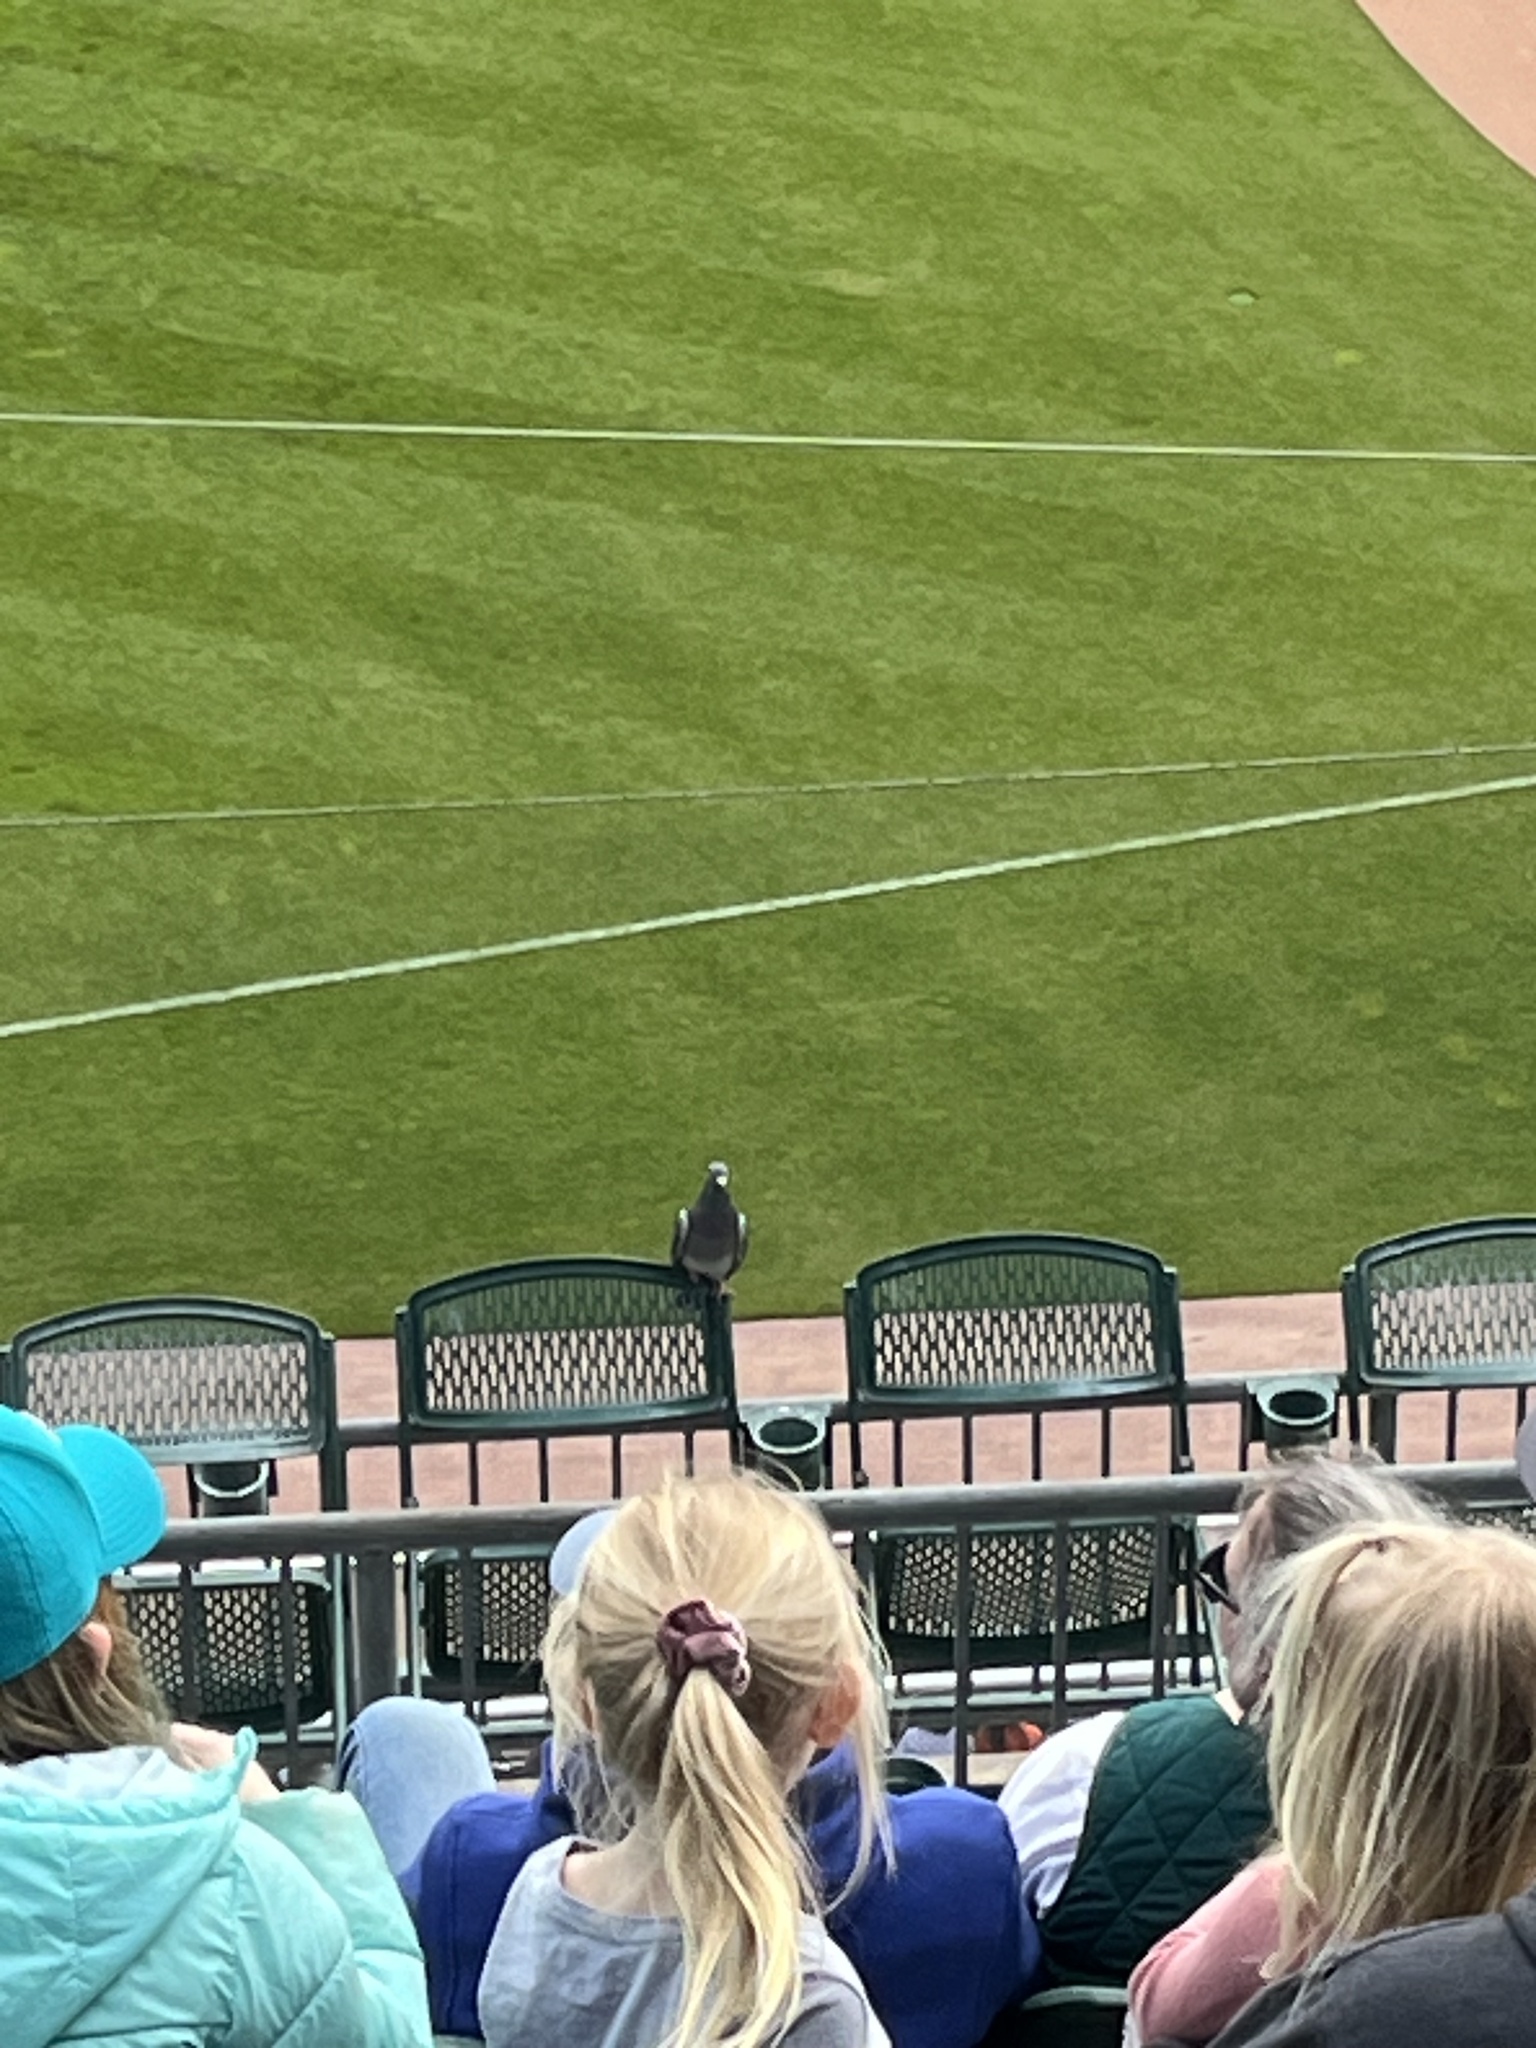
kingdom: Animalia
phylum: Chordata
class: Aves
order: Columbiformes
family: Columbidae
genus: Columba
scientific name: Columba livia
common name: Rock pigeon
